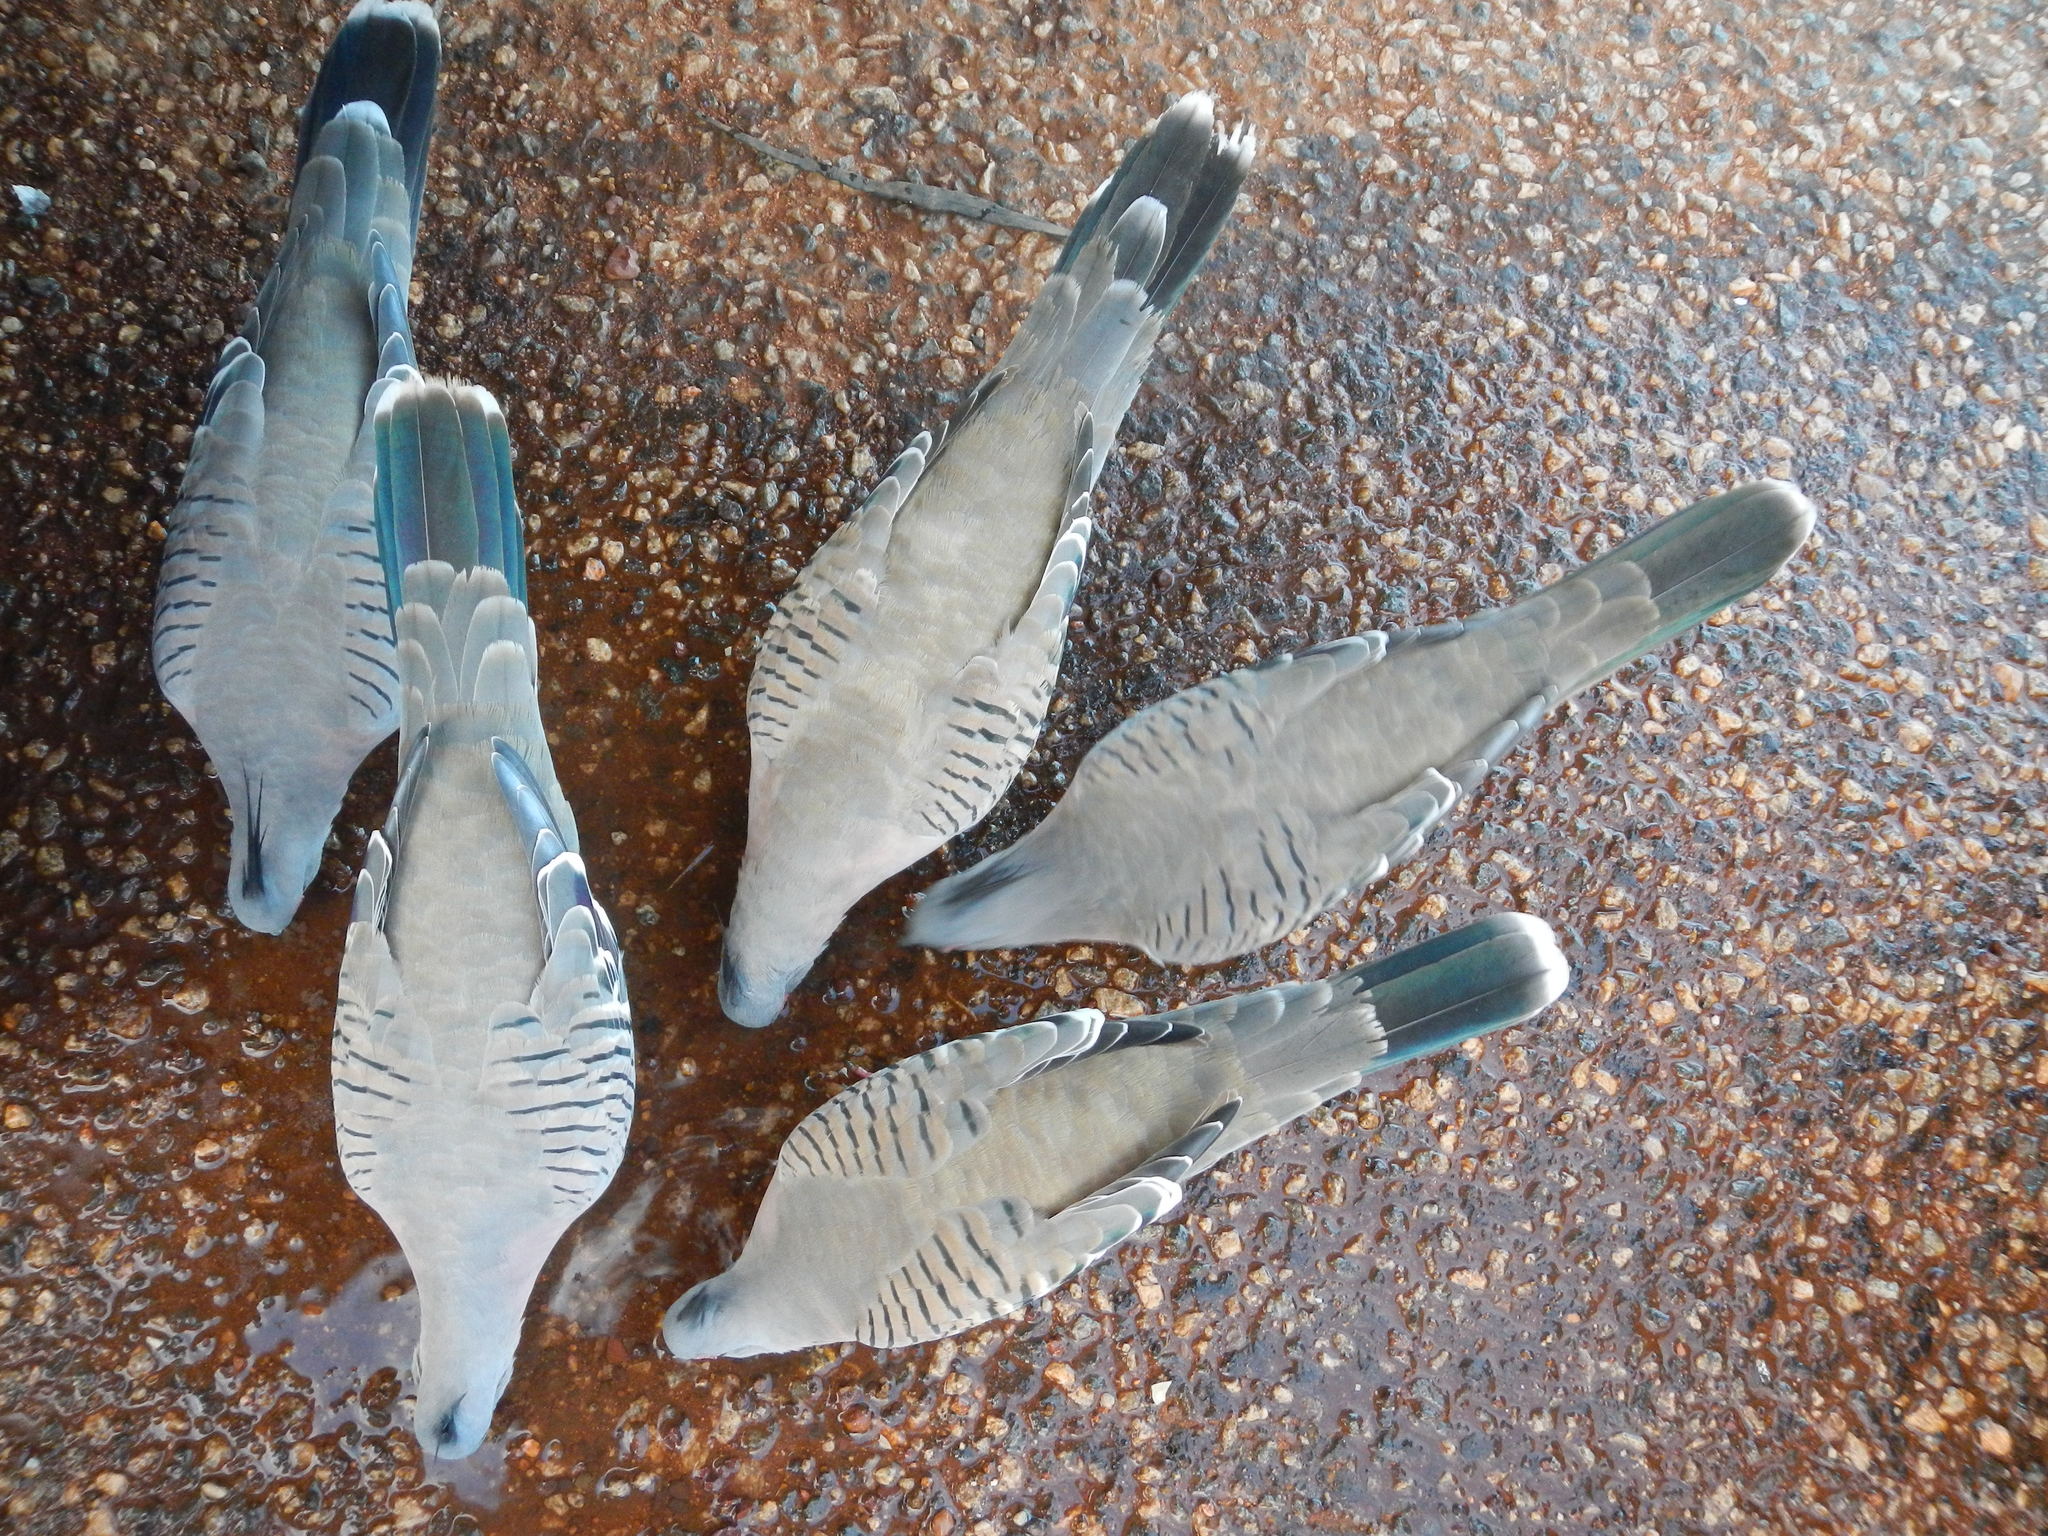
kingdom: Animalia
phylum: Chordata
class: Aves
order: Columbiformes
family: Columbidae
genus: Ocyphaps
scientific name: Ocyphaps lophotes
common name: Crested pigeon
